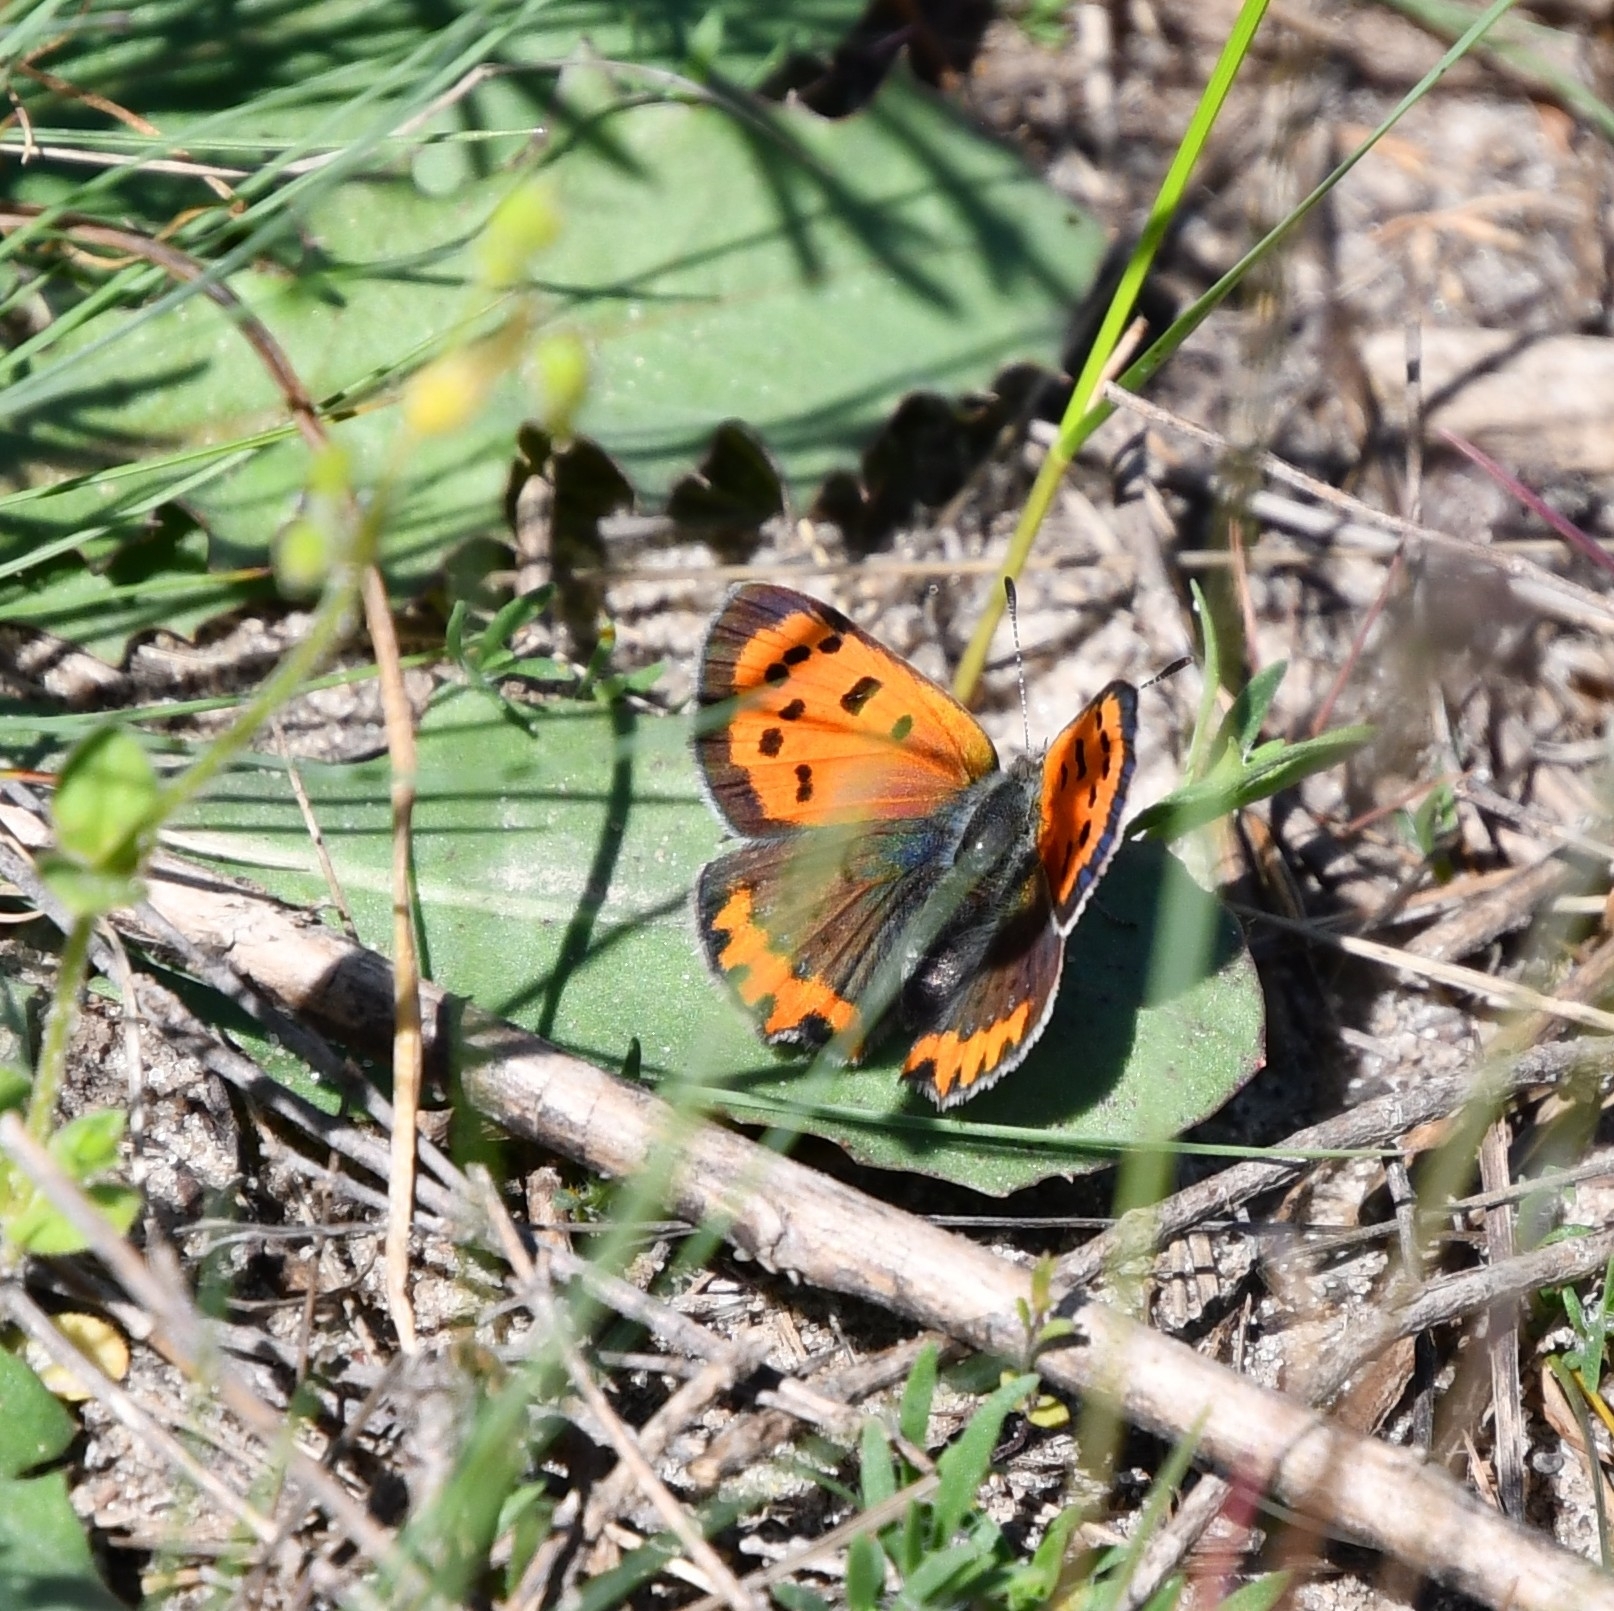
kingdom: Animalia
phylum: Arthropoda
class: Insecta
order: Lepidoptera
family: Lycaenidae
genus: Lycaena
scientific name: Lycaena phlaeas
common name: Small copper
